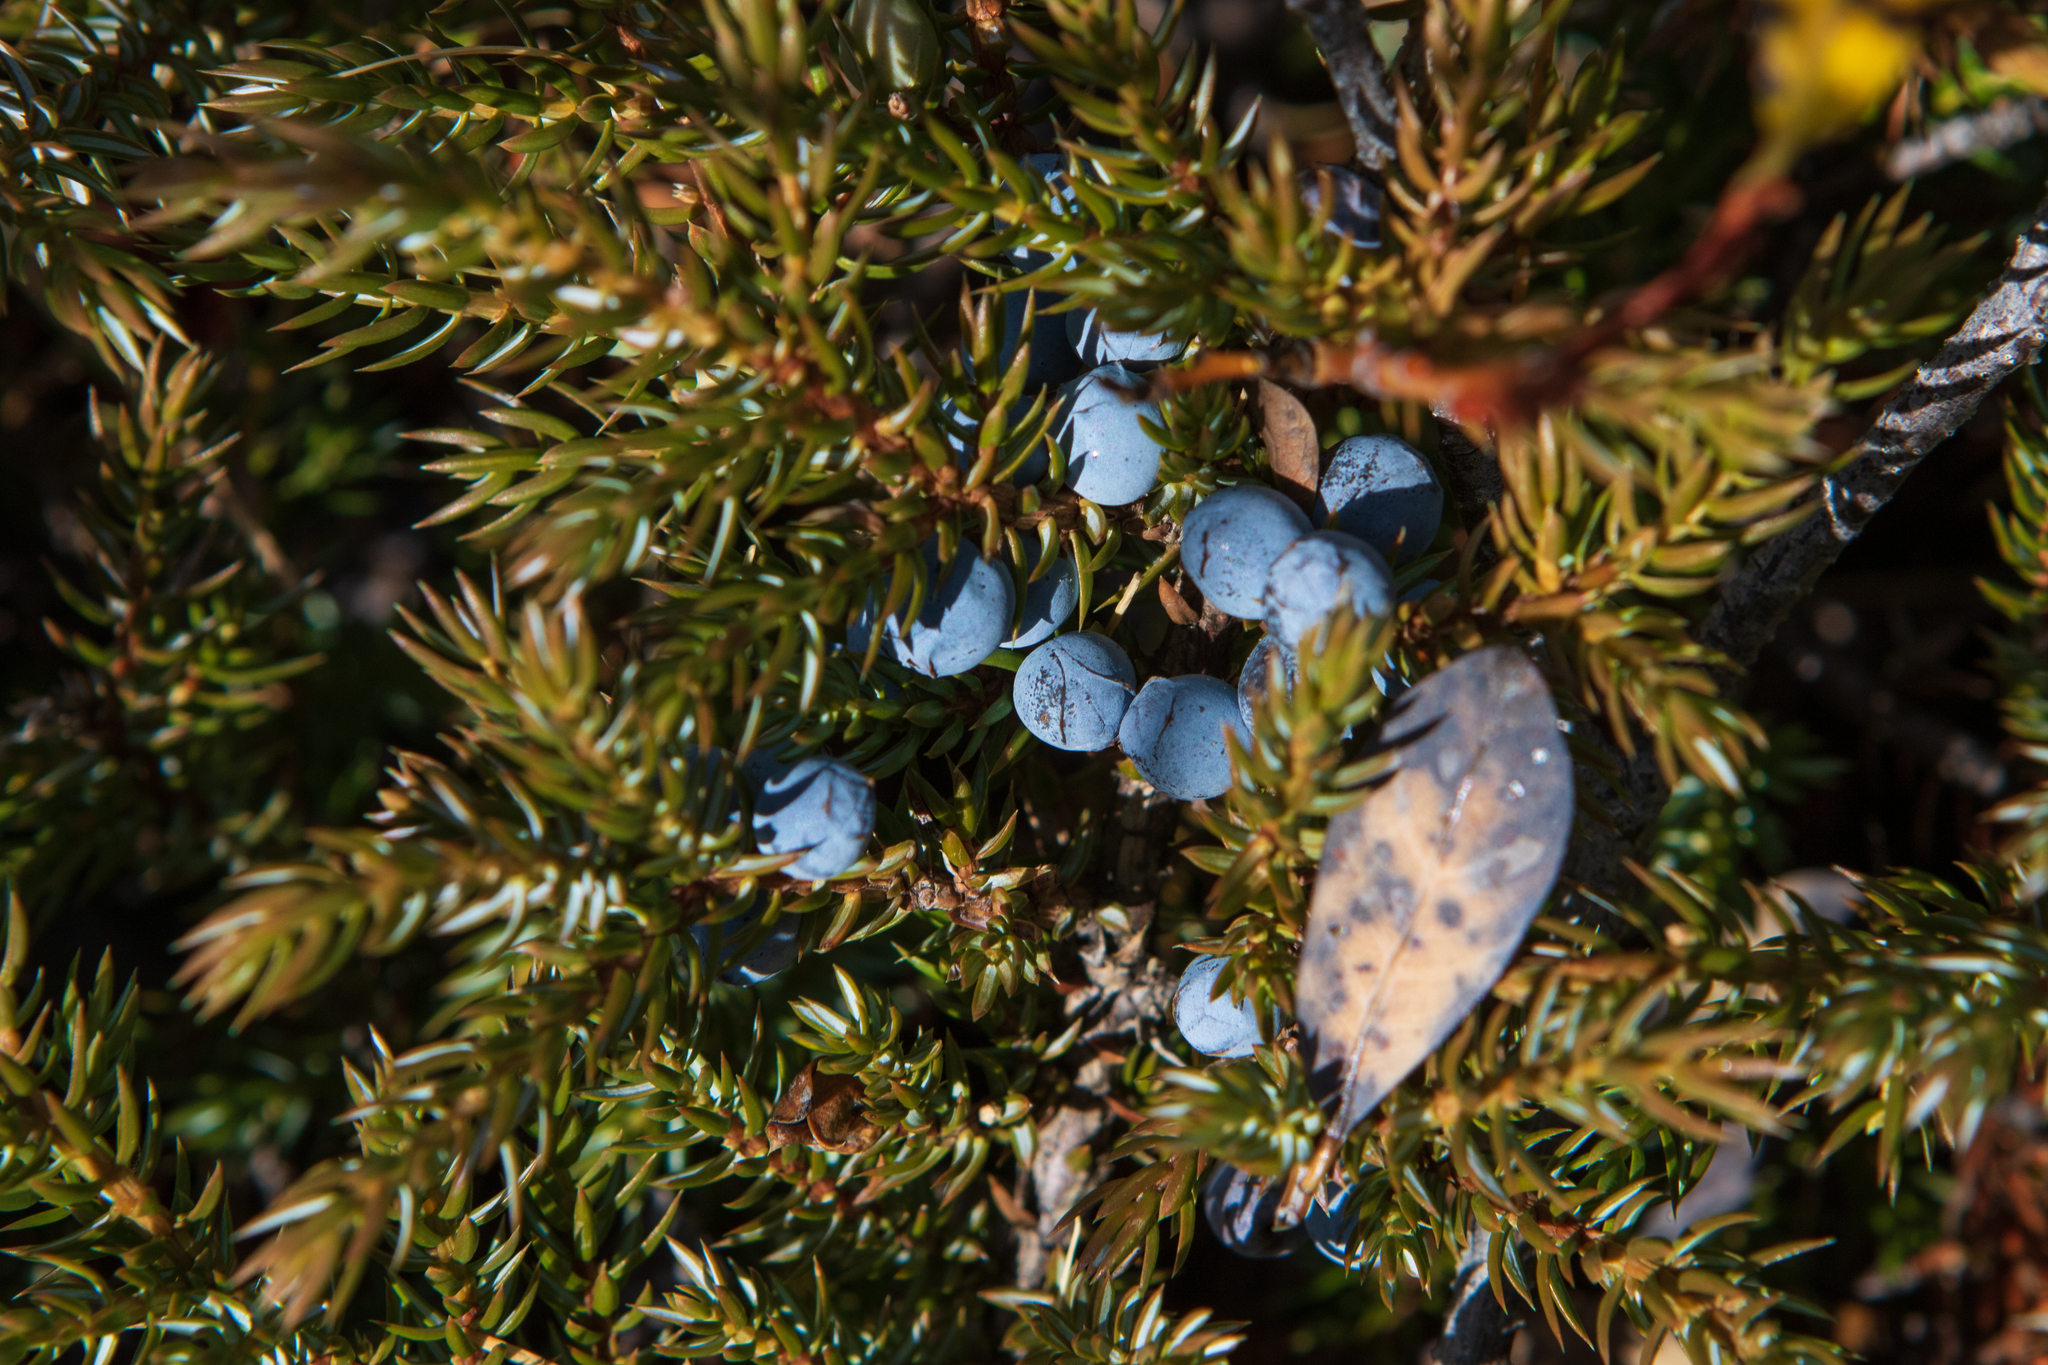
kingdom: Plantae
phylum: Tracheophyta
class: Pinopsida
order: Pinales
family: Cupressaceae
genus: Juniperus
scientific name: Juniperus communis
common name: Common juniper
